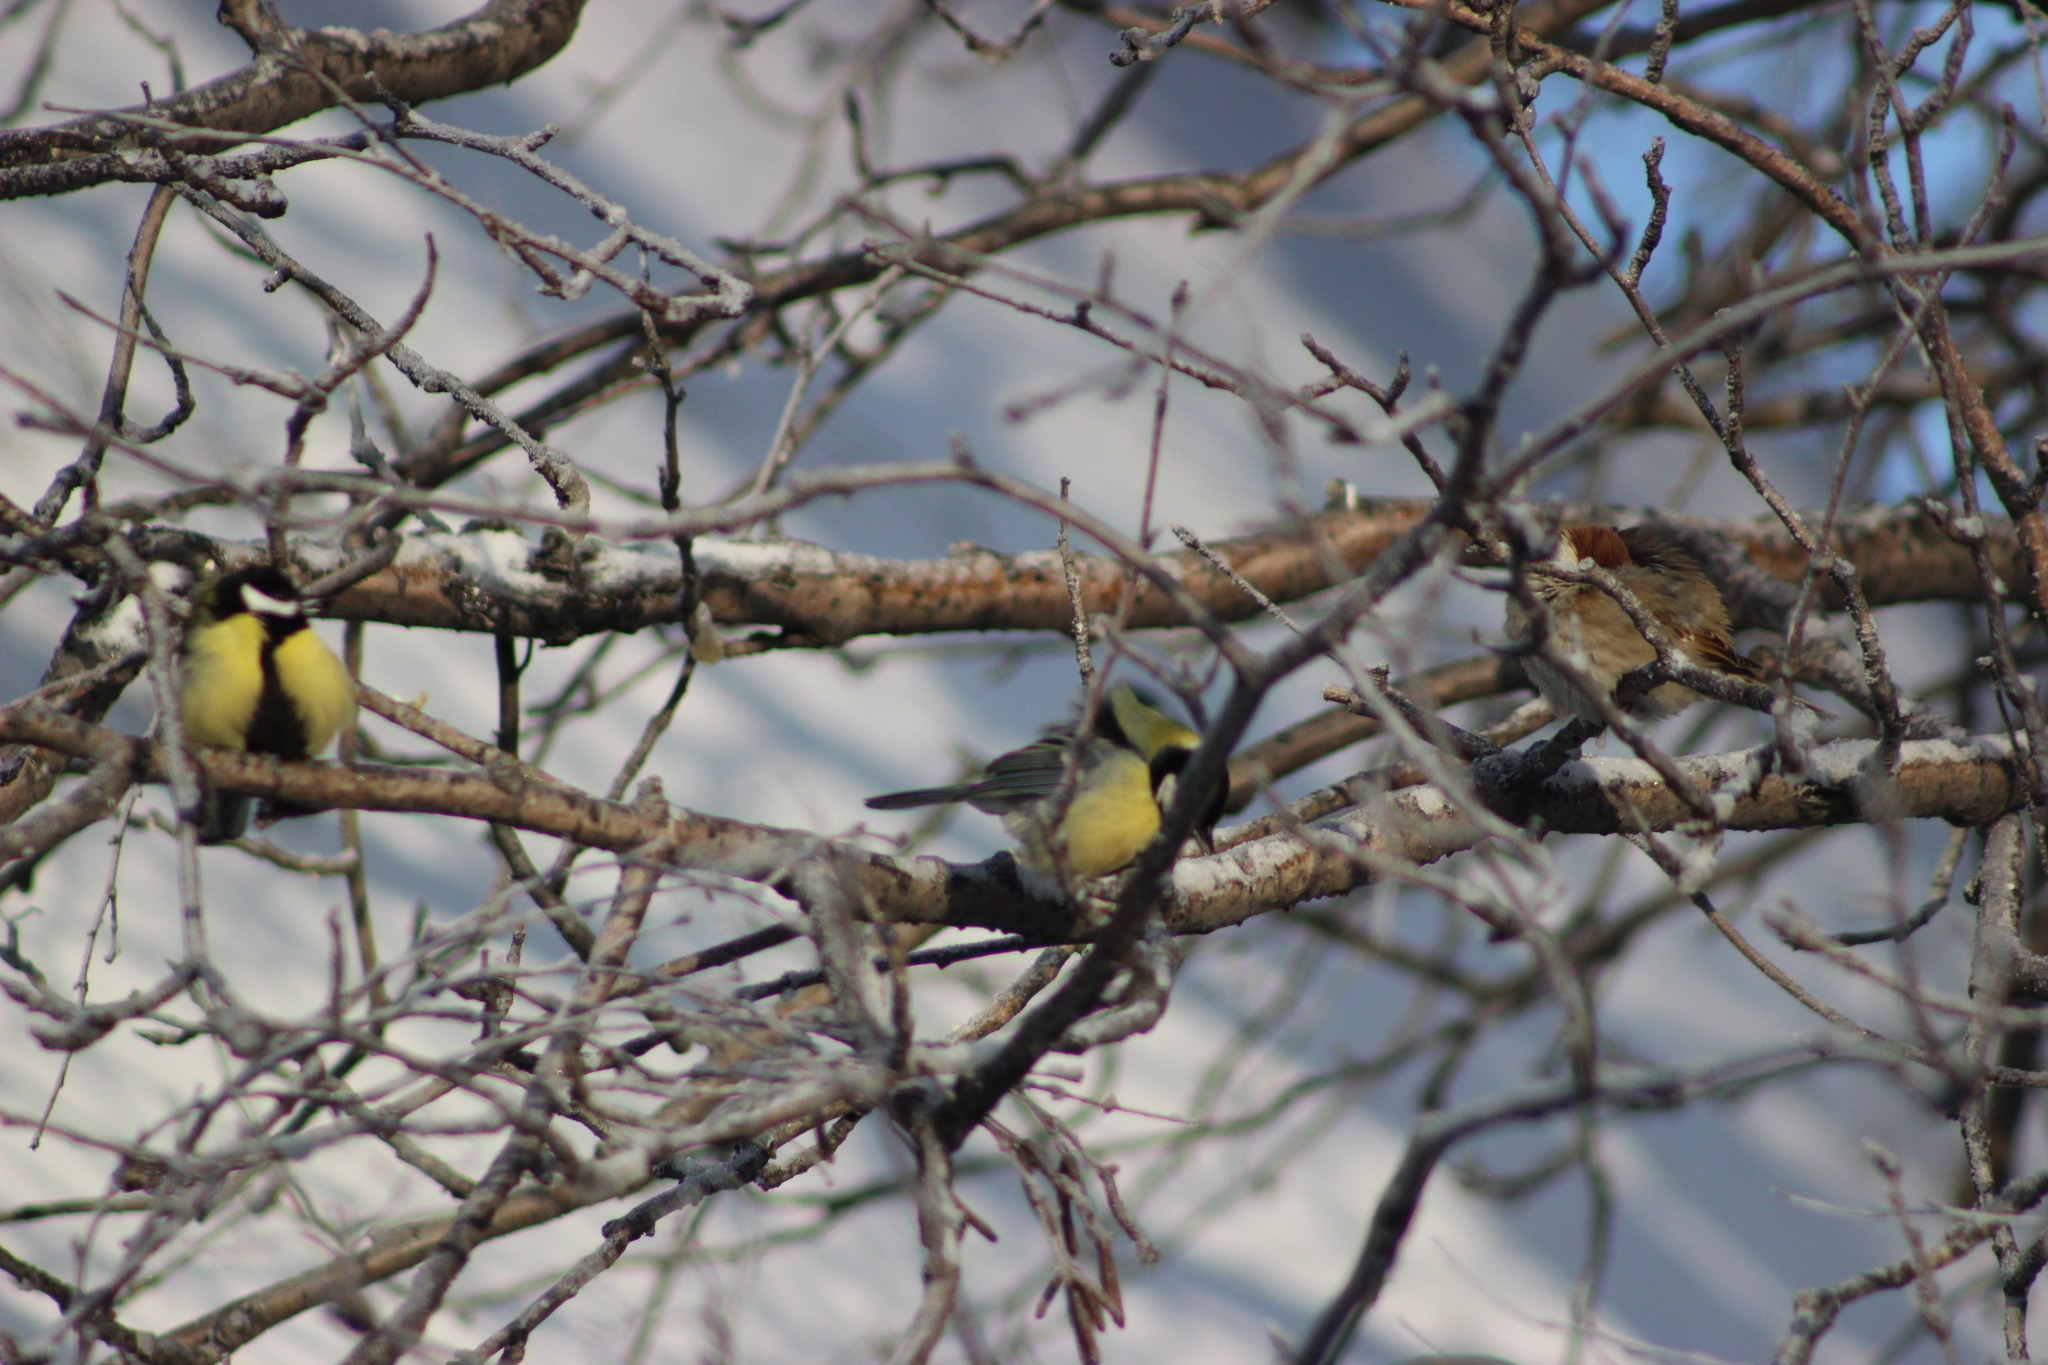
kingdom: Animalia
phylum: Chordata
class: Aves
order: Passeriformes
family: Paridae
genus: Parus
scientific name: Parus major
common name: Great tit
